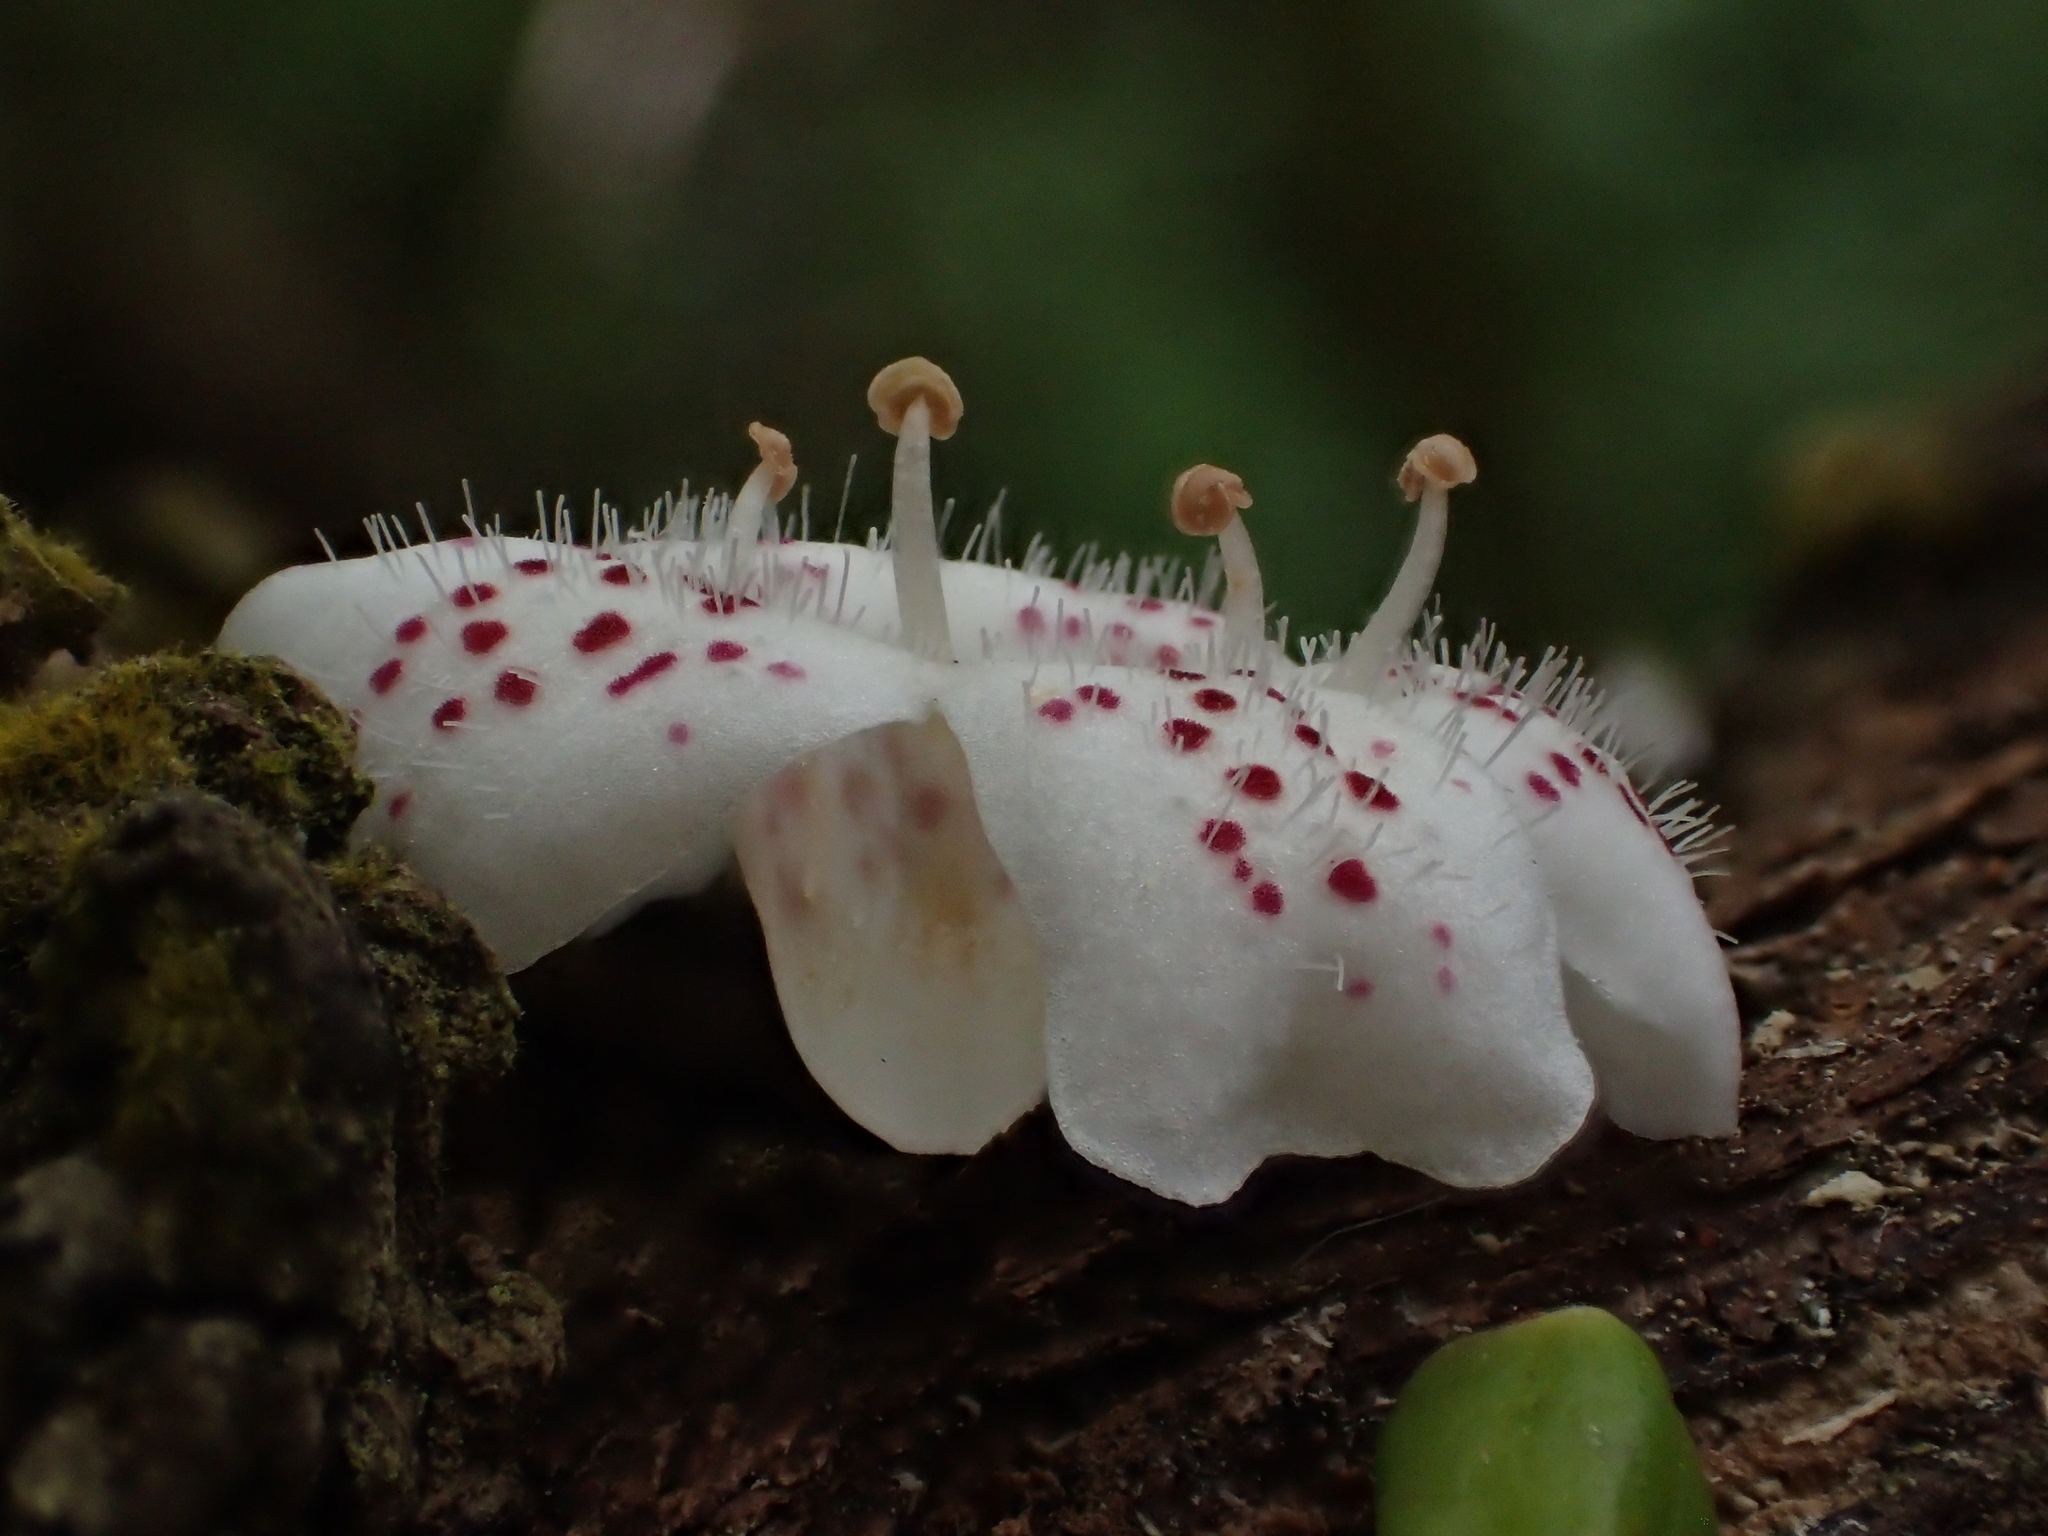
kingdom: Plantae
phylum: Tracheophyta
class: Magnoliopsida
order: Lamiales
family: Scrophulariaceae
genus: Myoporum
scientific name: Myoporum laetum
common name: Ngaio tree
